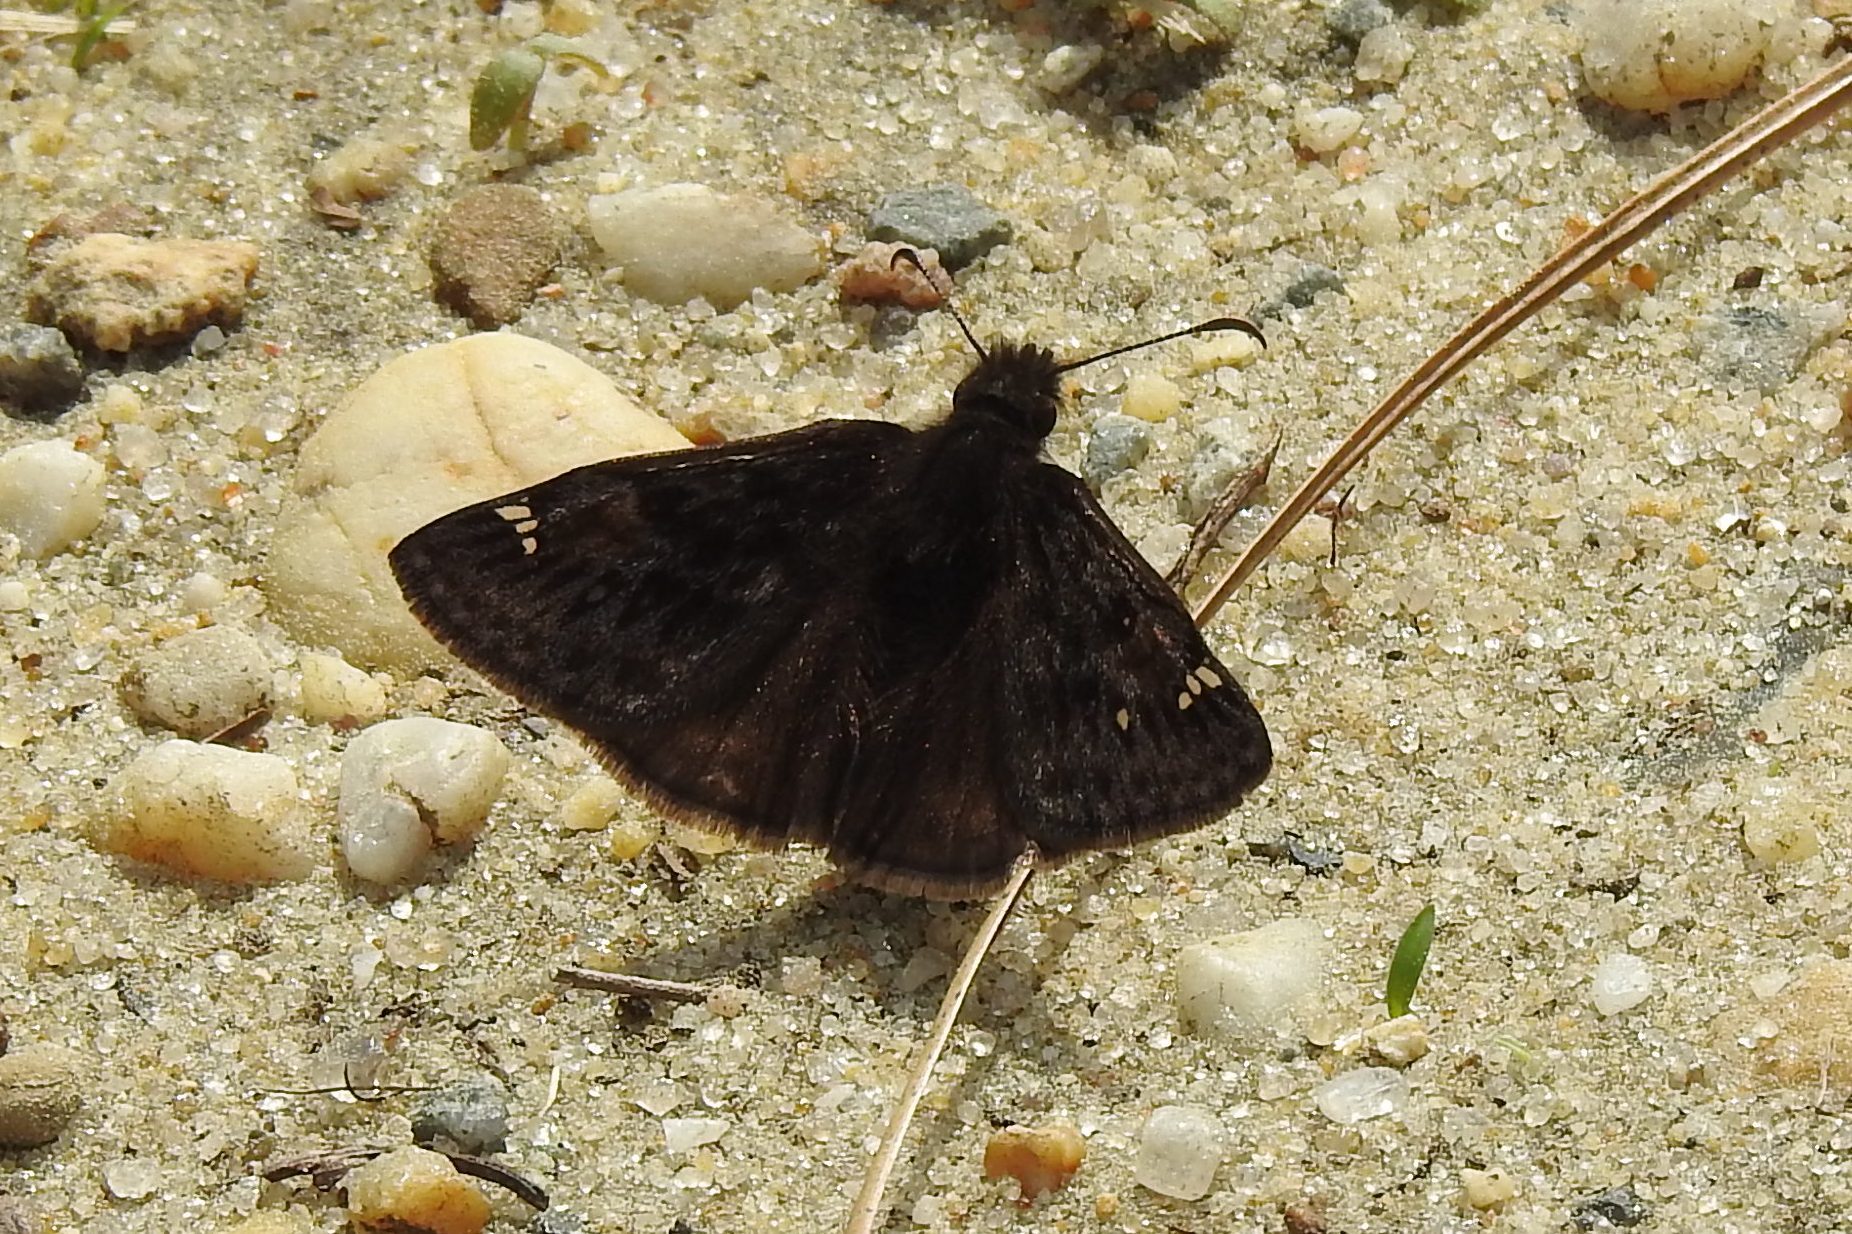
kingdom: Animalia
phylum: Arthropoda
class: Insecta
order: Lepidoptera
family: Hesperiidae
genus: Erynnis
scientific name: Erynnis juvenalis
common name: Juvenal's duskywing
